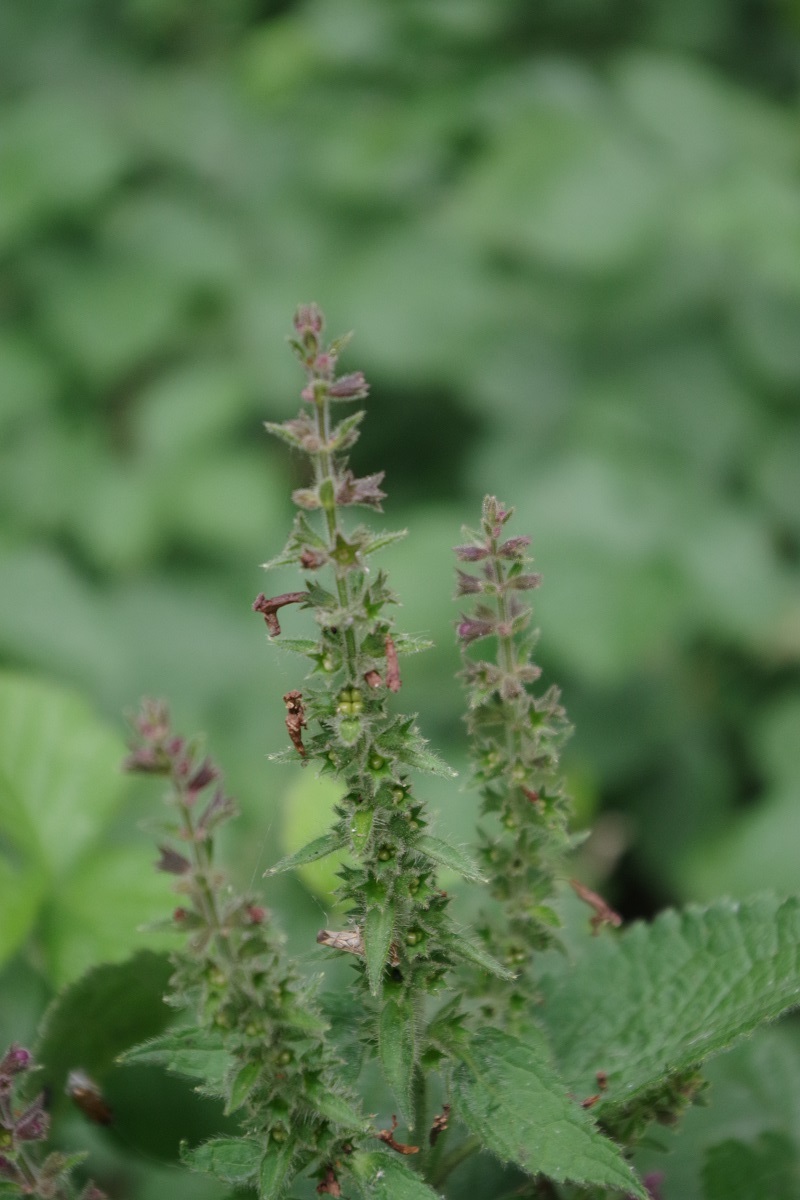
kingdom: Plantae
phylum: Tracheophyta
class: Magnoliopsida
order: Lamiales
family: Lamiaceae
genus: Stachys
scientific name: Stachys sylvatica
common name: Hedge woundwort
